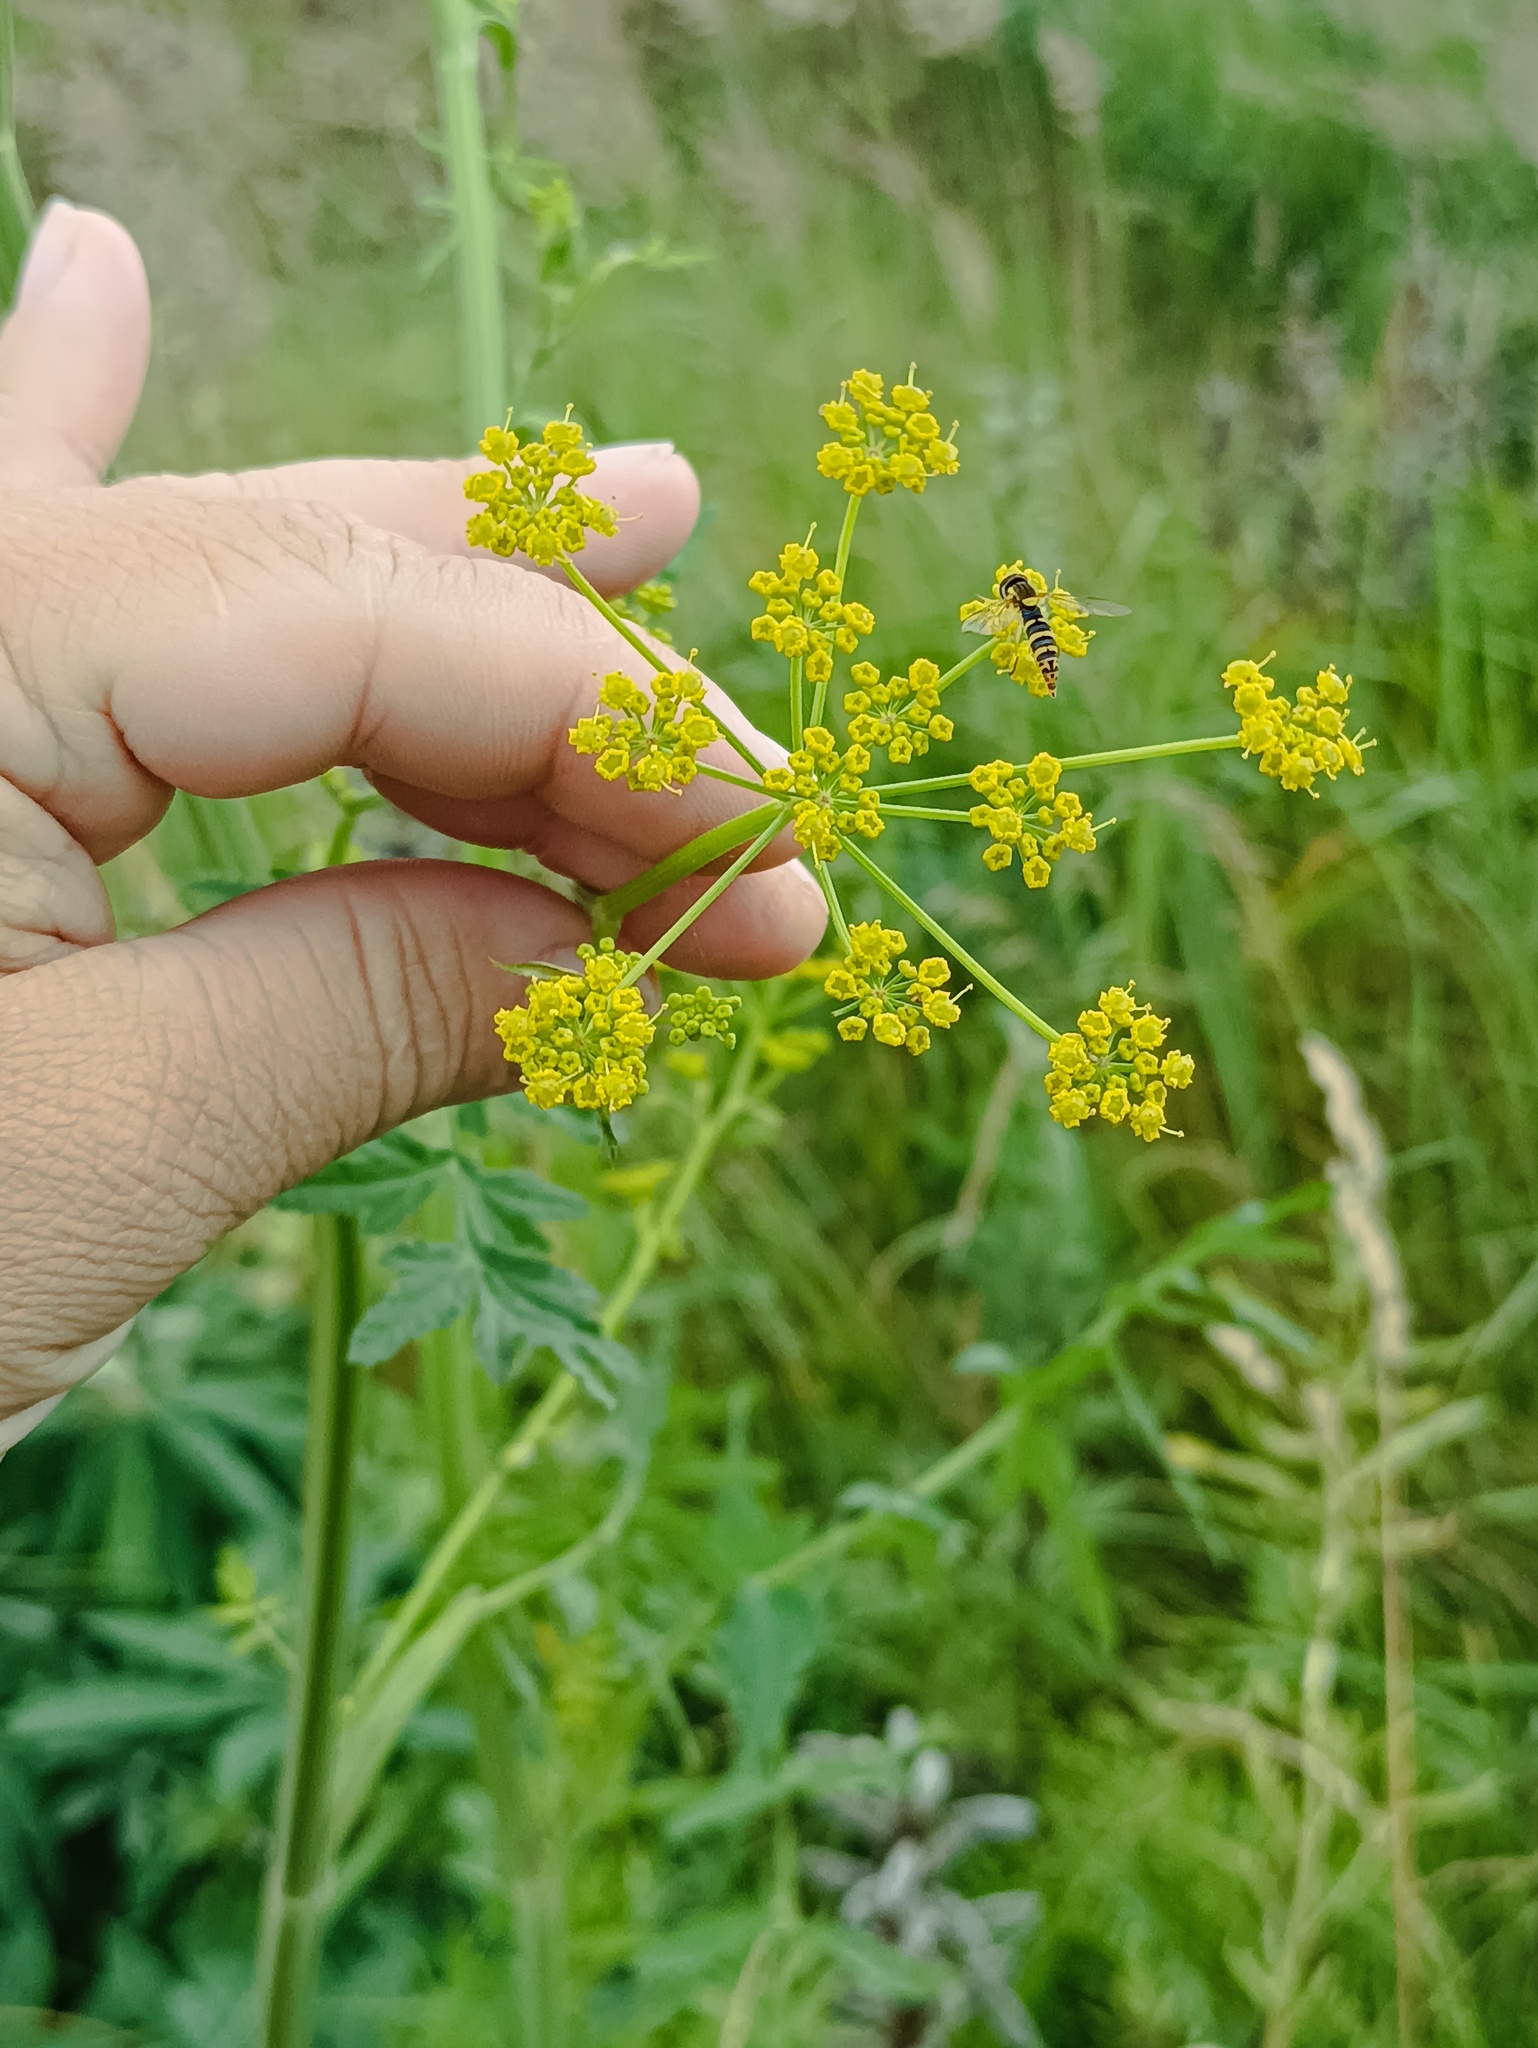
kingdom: Plantae
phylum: Tracheophyta
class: Magnoliopsida
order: Apiales
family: Apiaceae
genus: Pastinaca
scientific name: Pastinaca sativa
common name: Wild parsnip
